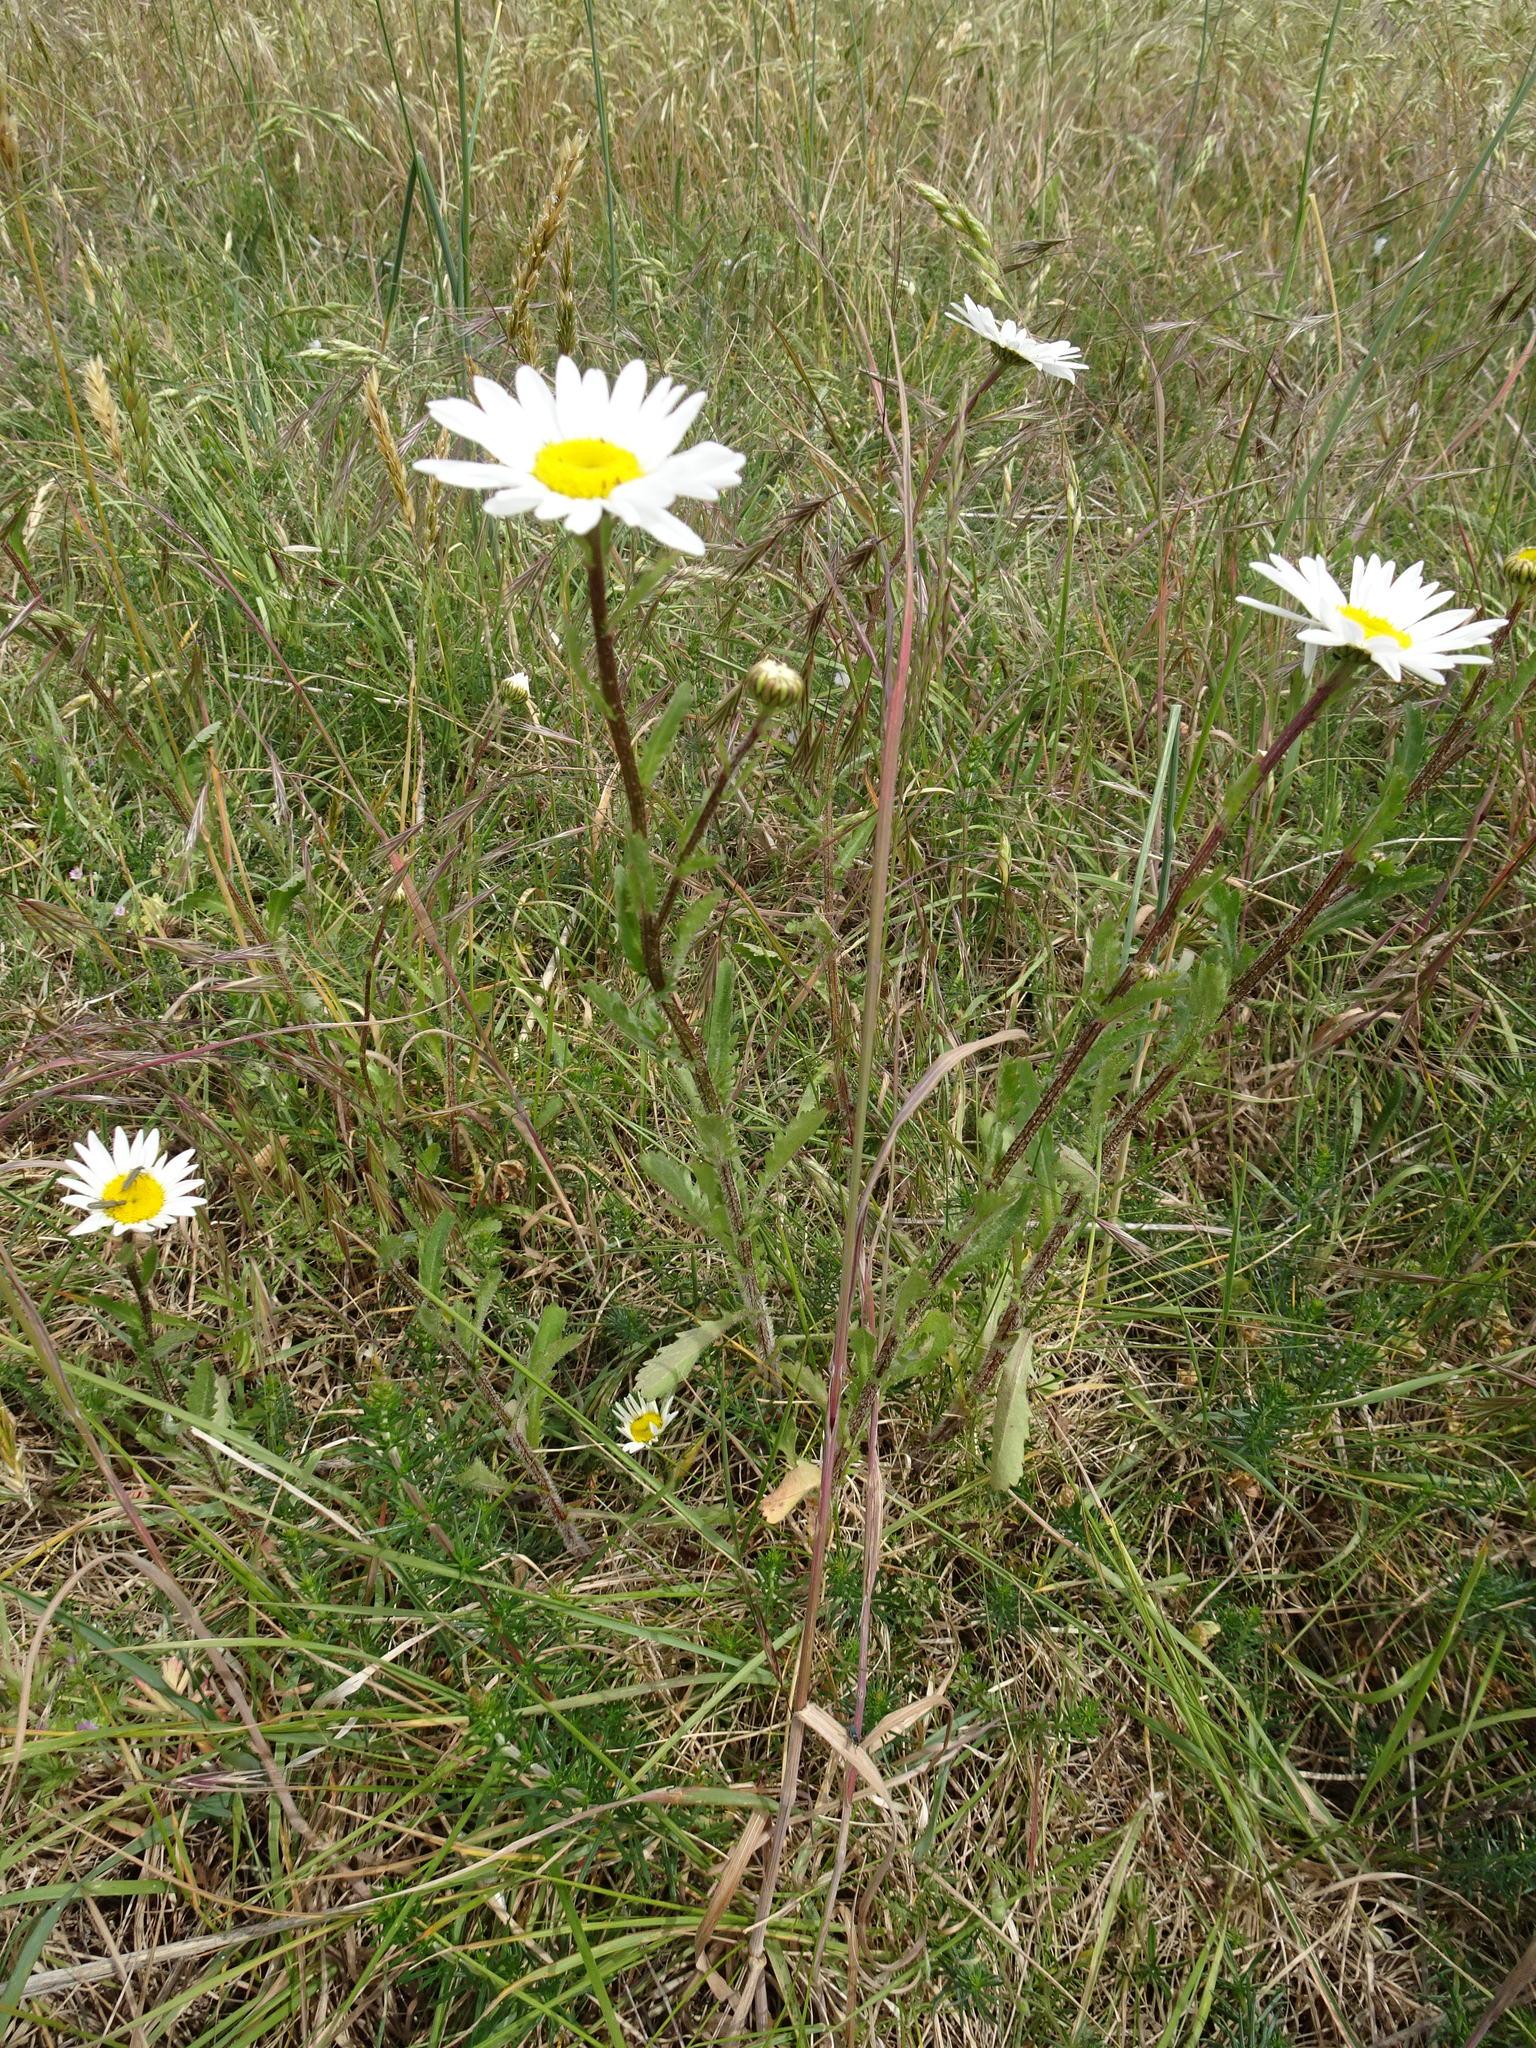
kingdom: Plantae
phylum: Tracheophyta
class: Magnoliopsida
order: Asterales
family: Asteraceae
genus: Leucanthemum
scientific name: Leucanthemum vulgare
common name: Oxeye daisy
